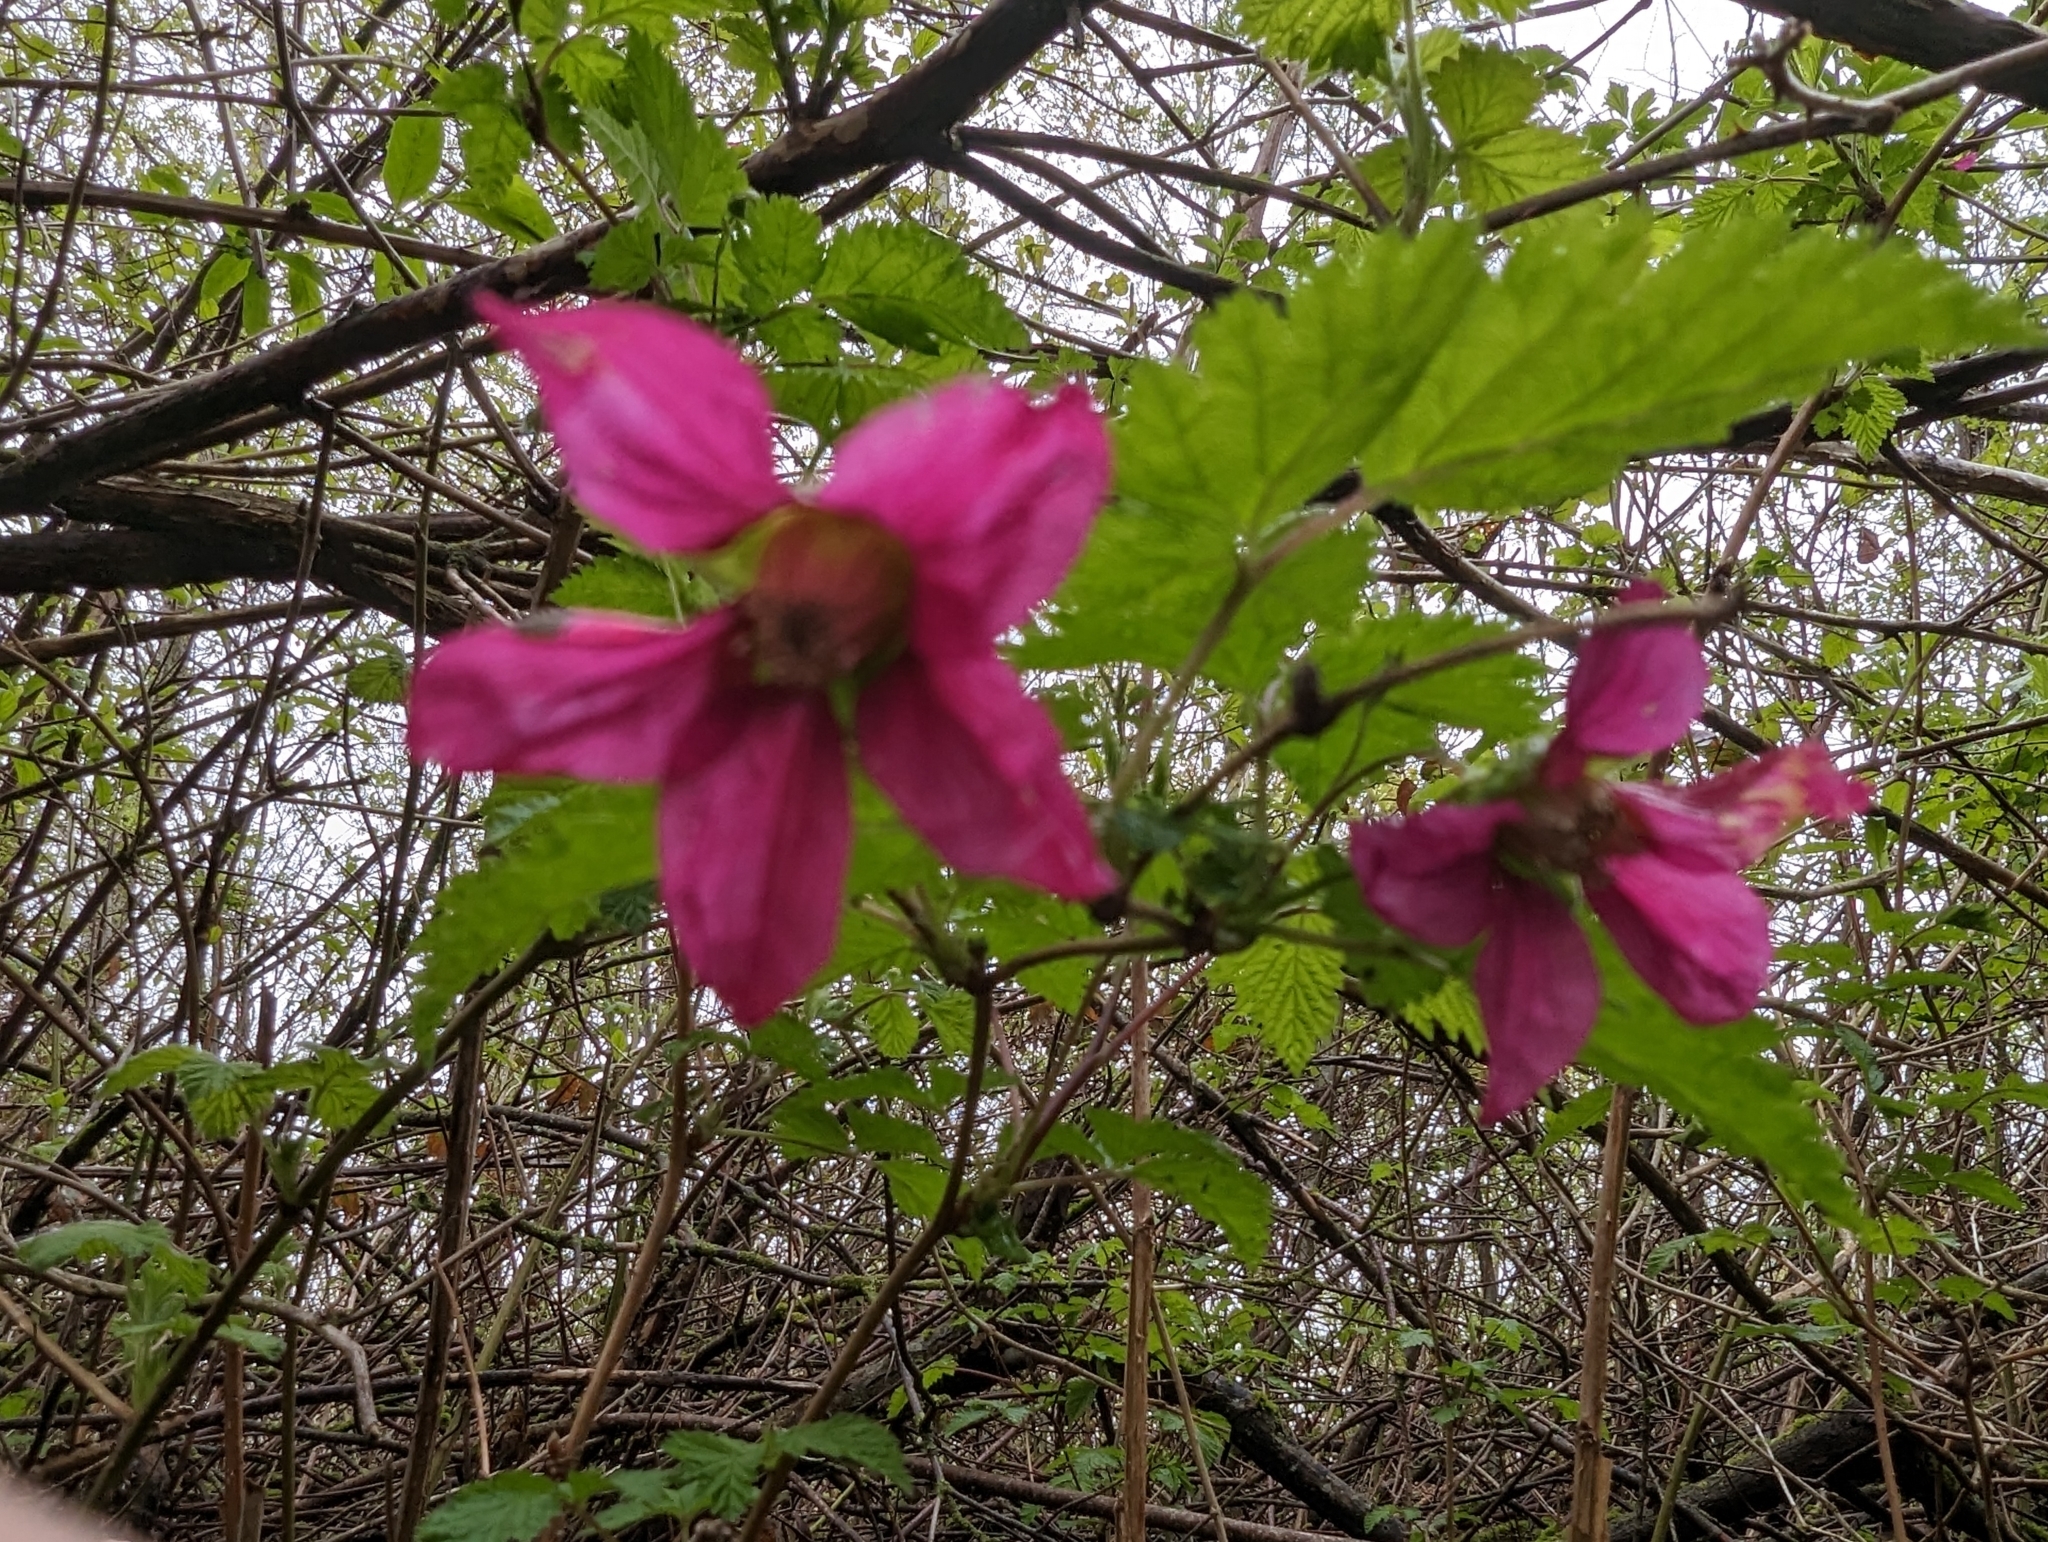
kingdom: Plantae
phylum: Tracheophyta
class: Magnoliopsida
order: Rosales
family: Rosaceae
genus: Rubus
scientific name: Rubus spectabilis
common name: Salmonberry
